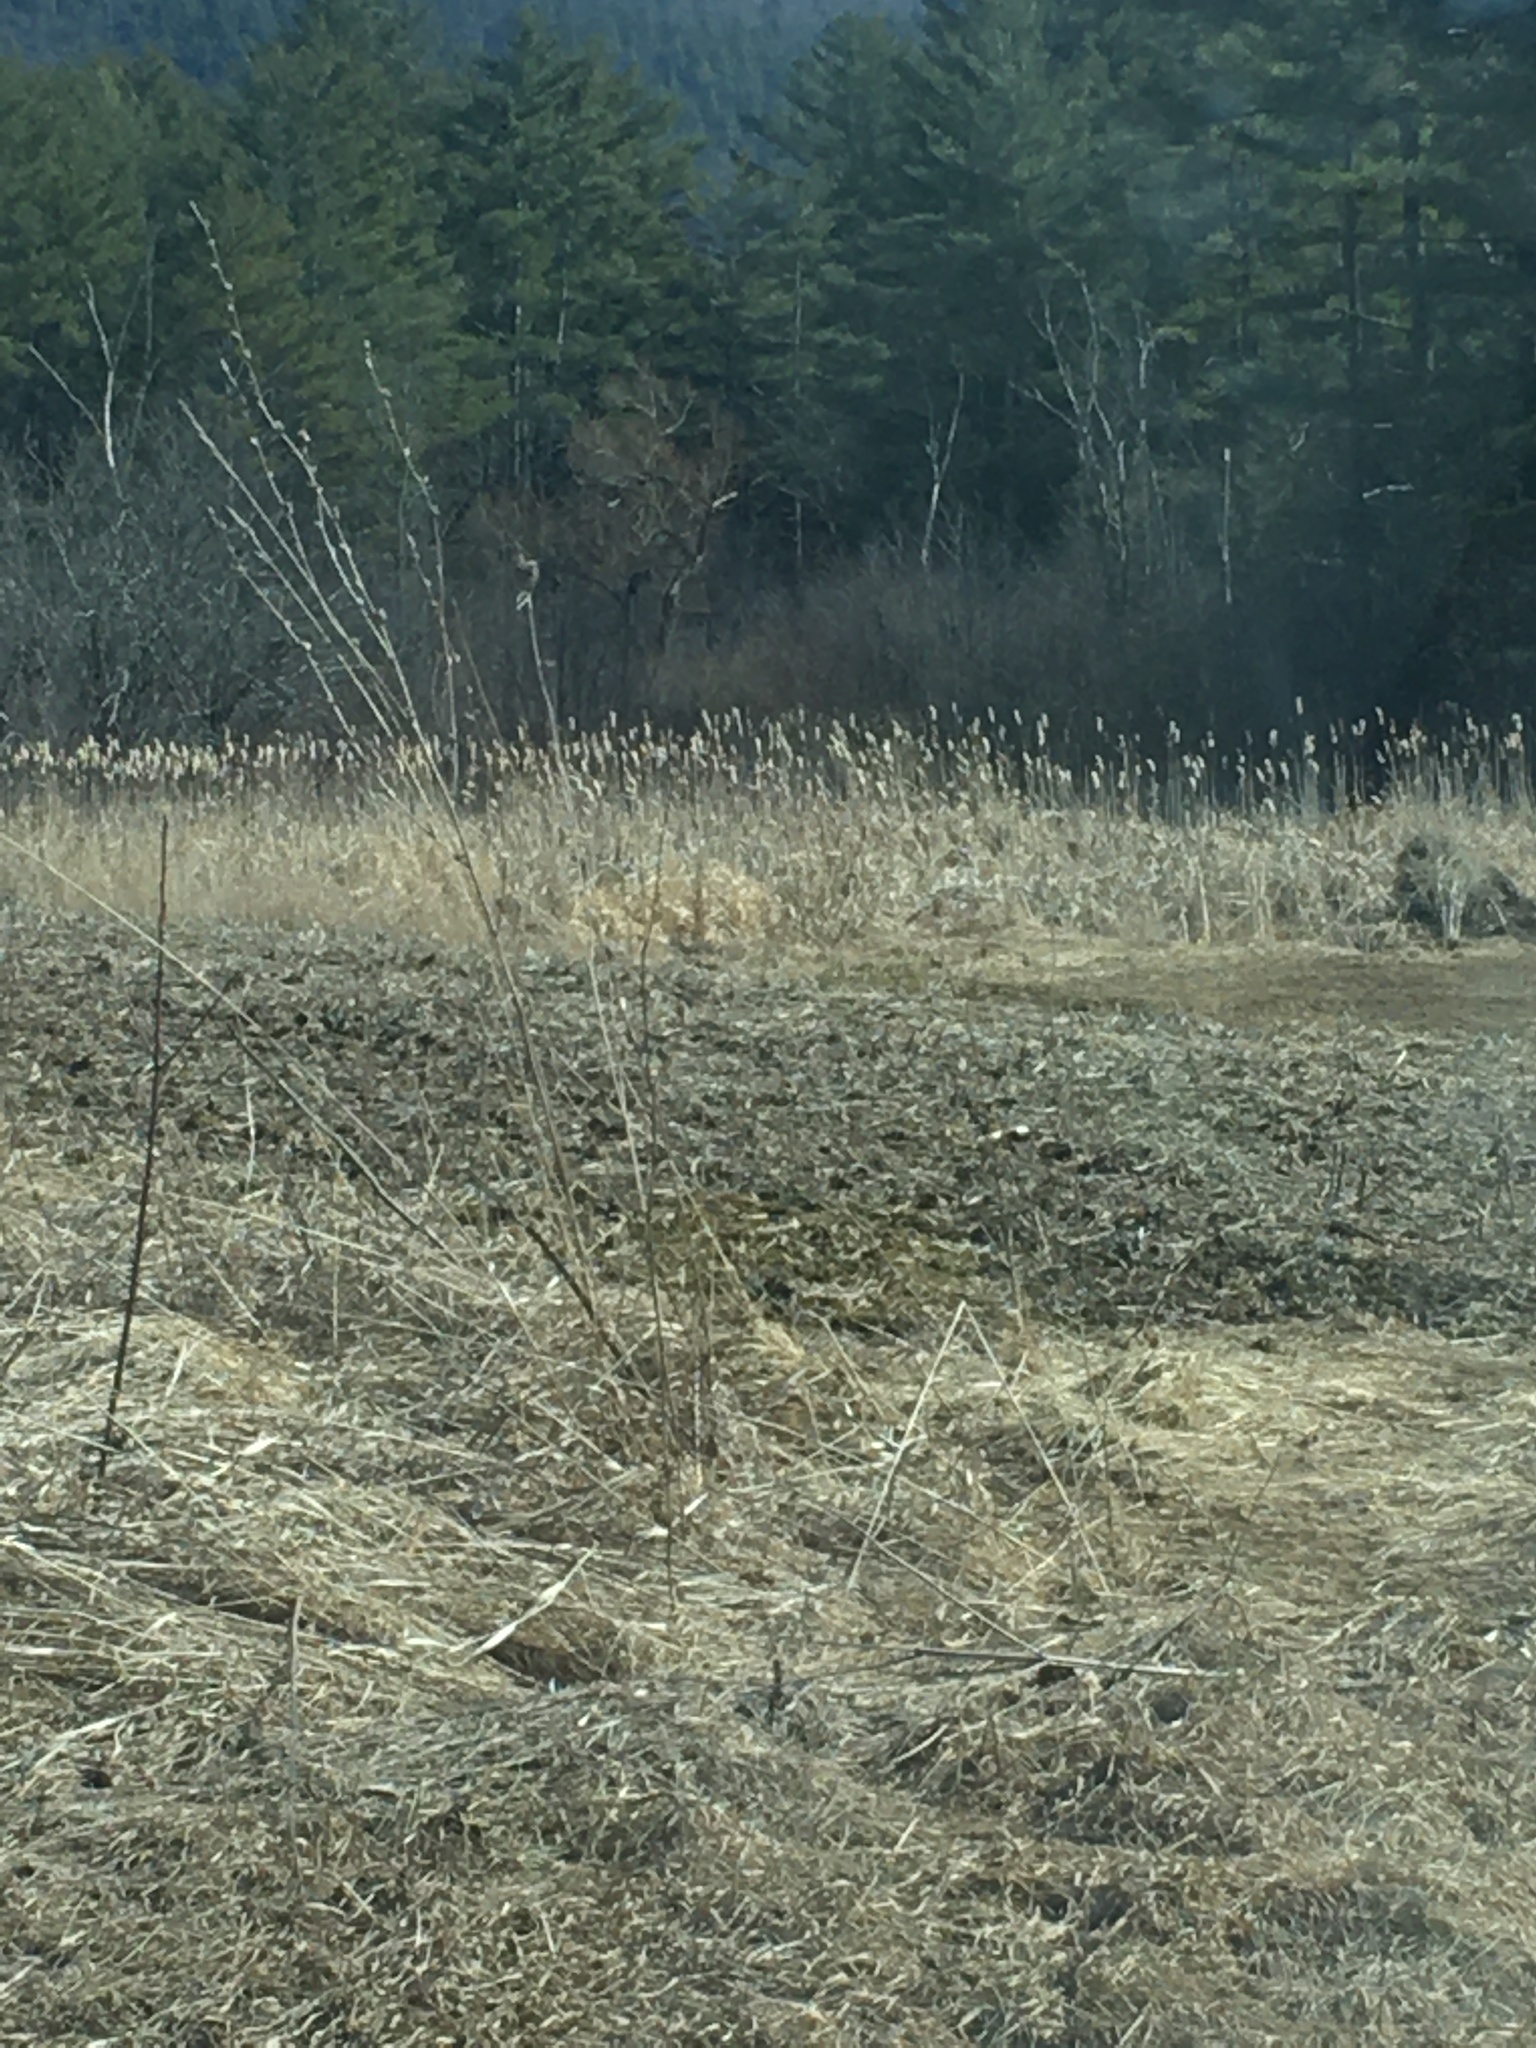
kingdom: Plantae
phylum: Tracheophyta
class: Liliopsida
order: Poales
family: Typhaceae
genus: Typha
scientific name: Typha
